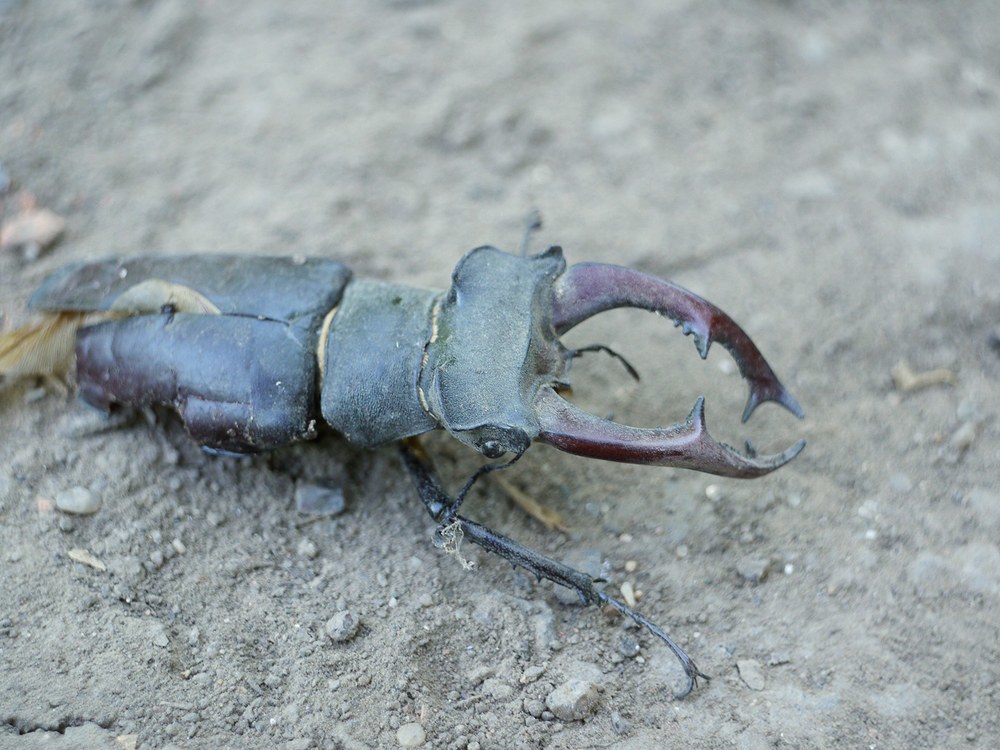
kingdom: Animalia
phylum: Arthropoda
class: Insecta
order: Coleoptera
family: Lucanidae
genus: Lucanus
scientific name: Lucanus cervus
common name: Stag beetle
